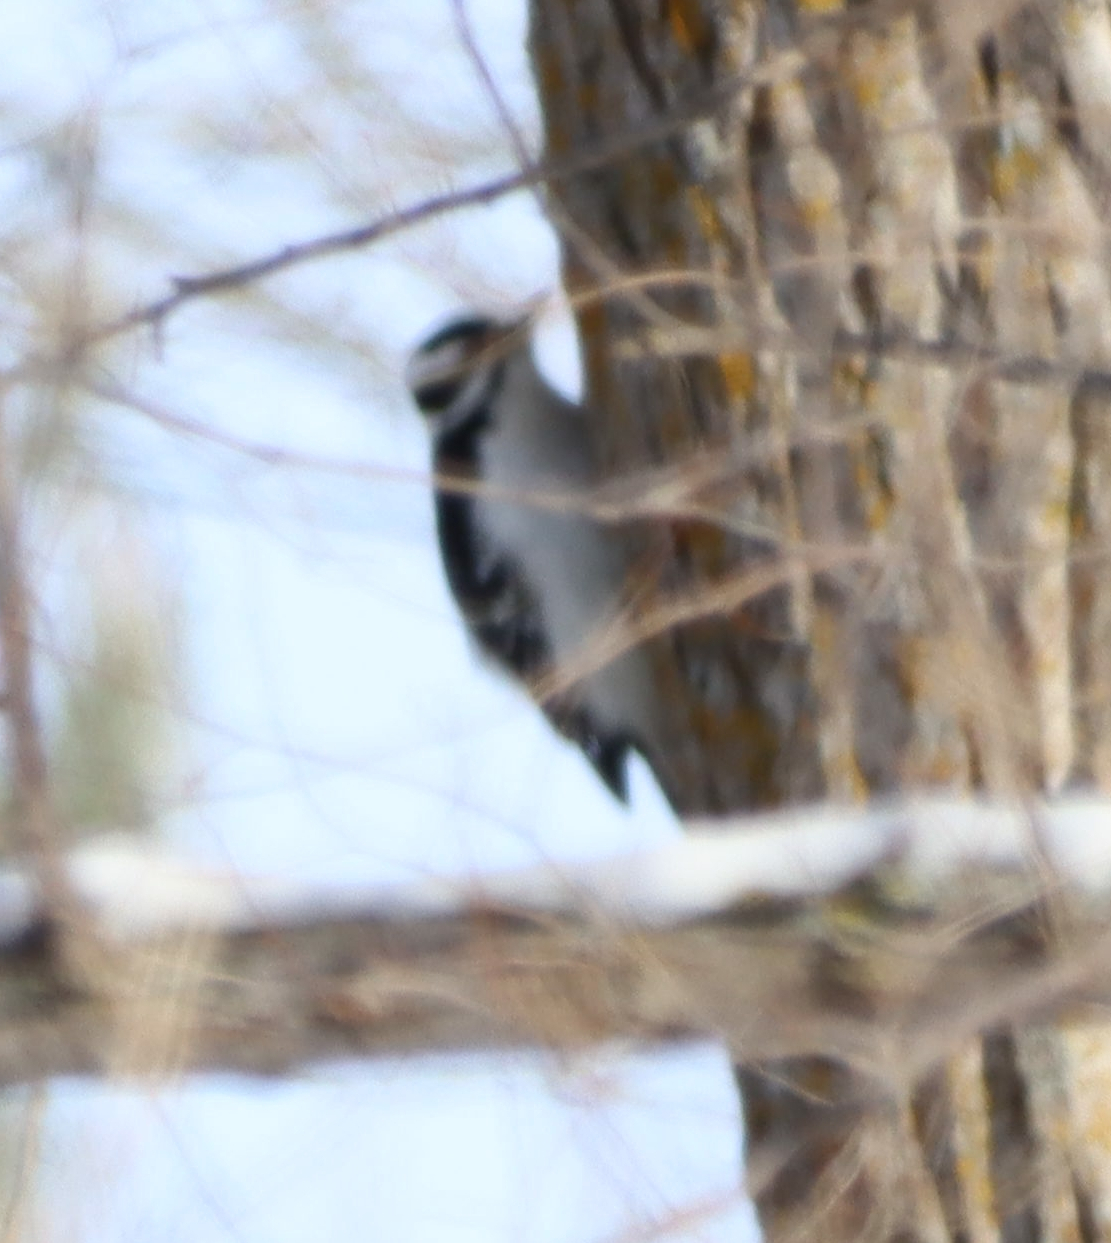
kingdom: Animalia
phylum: Chordata
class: Aves
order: Piciformes
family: Picidae
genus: Leuconotopicus
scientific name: Leuconotopicus villosus
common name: Hairy woodpecker
